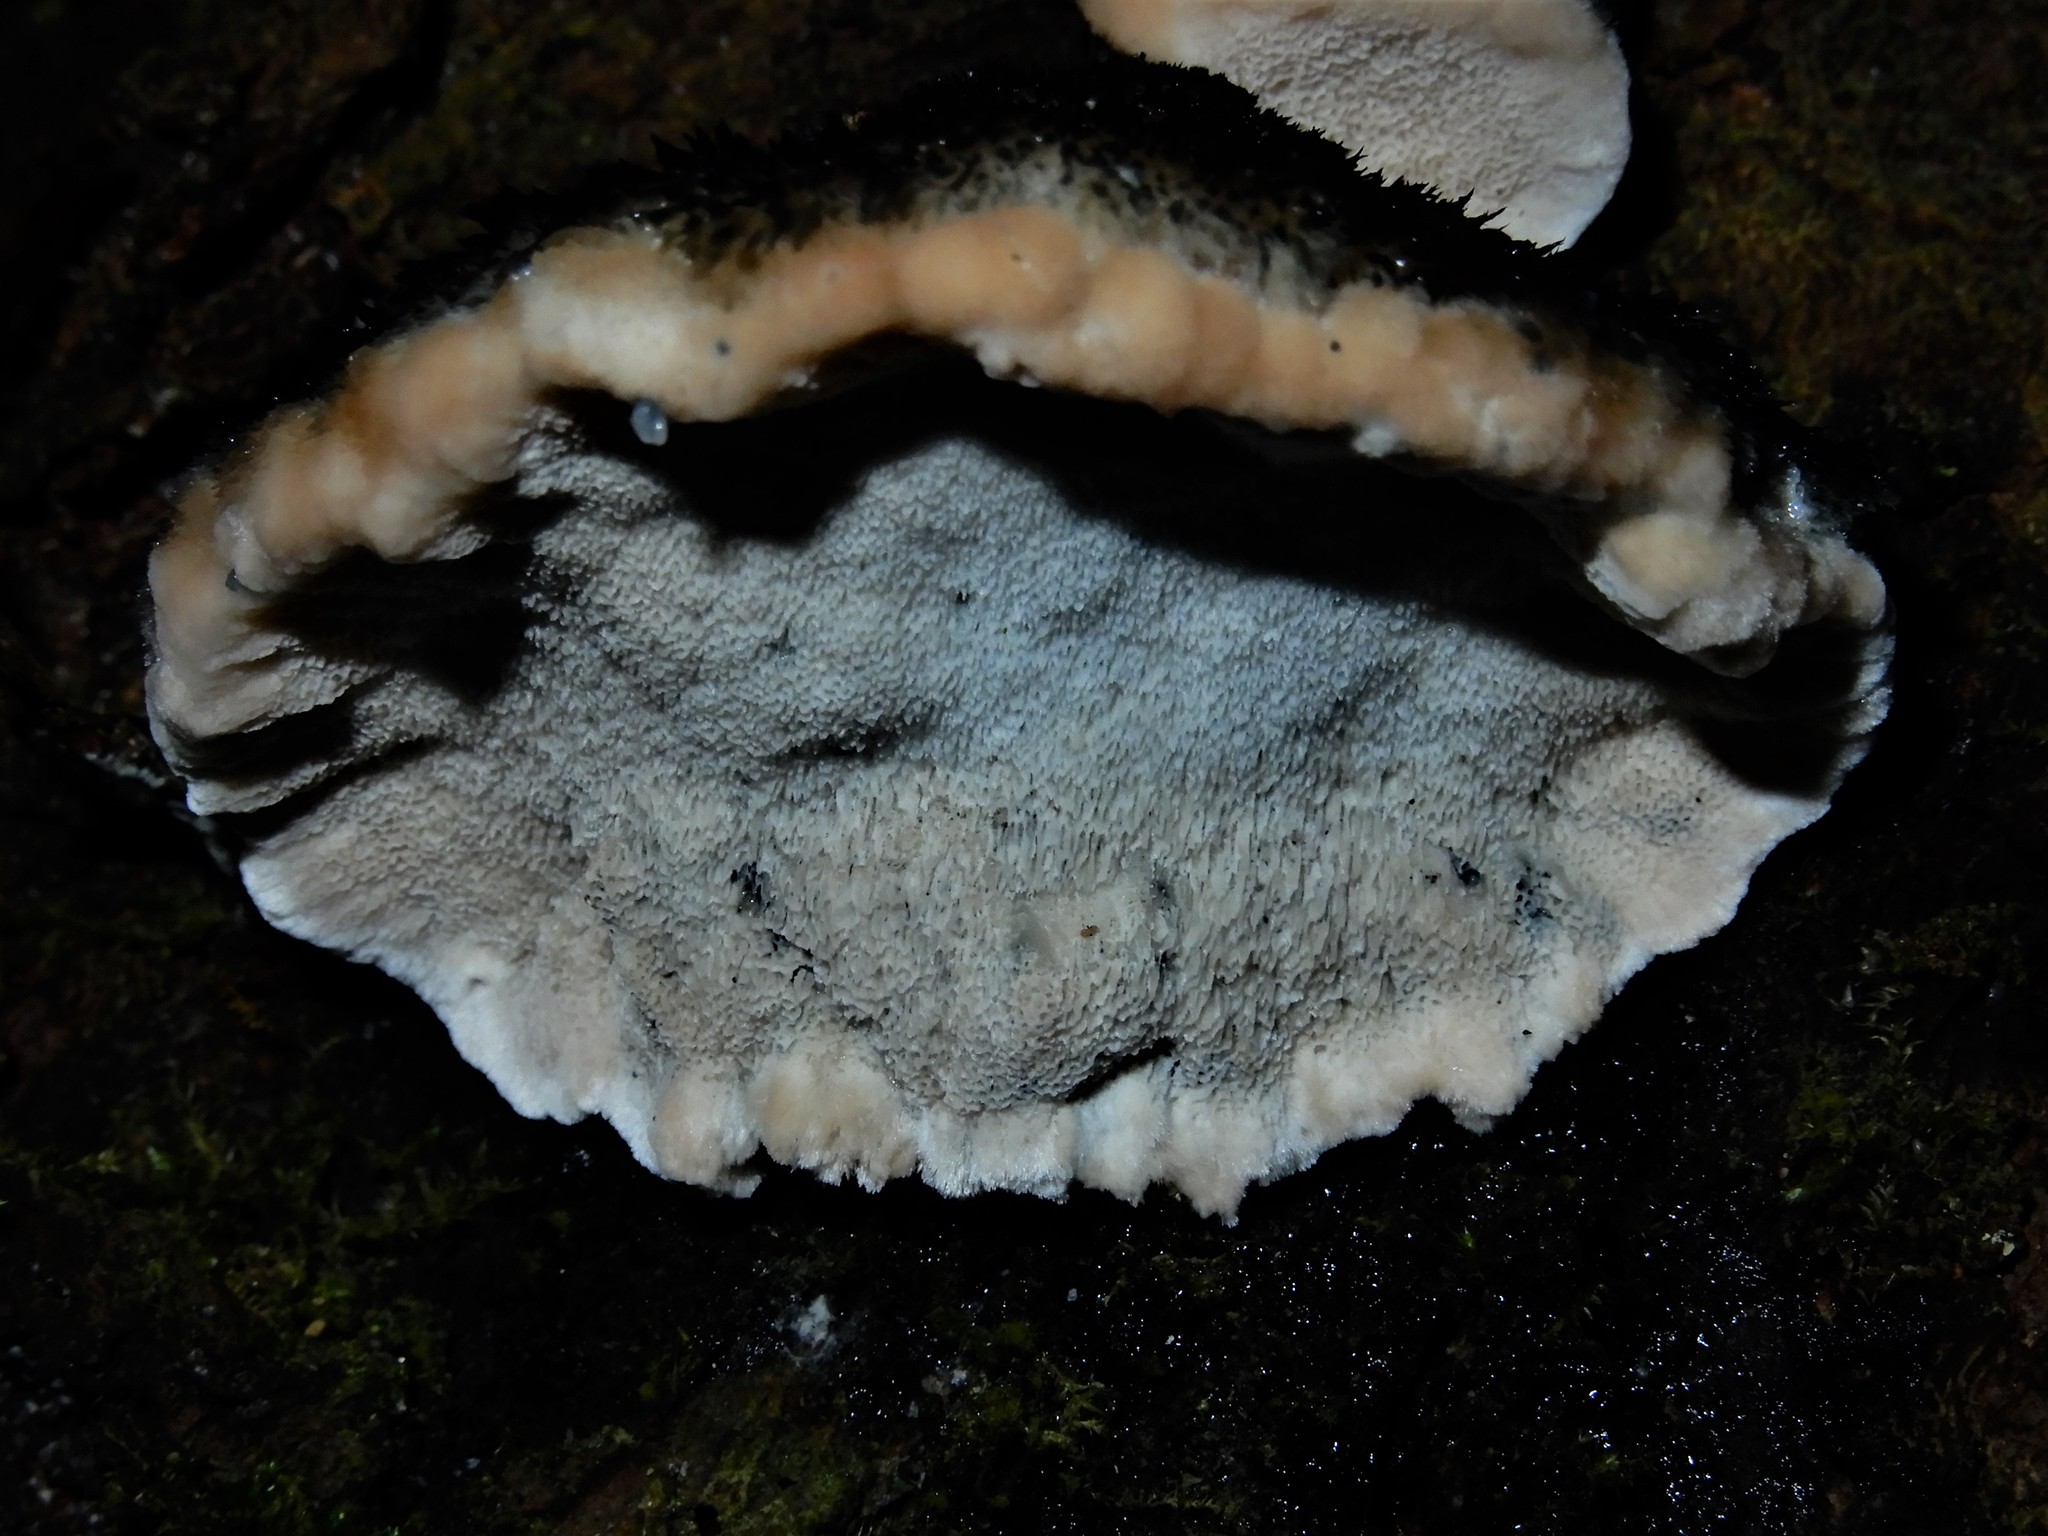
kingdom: Fungi
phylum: Basidiomycota
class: Agaricomycetes
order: Polyporales
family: Incrustoporiaceae
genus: Tyromyces
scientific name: Tyromyces atrostrigosus
